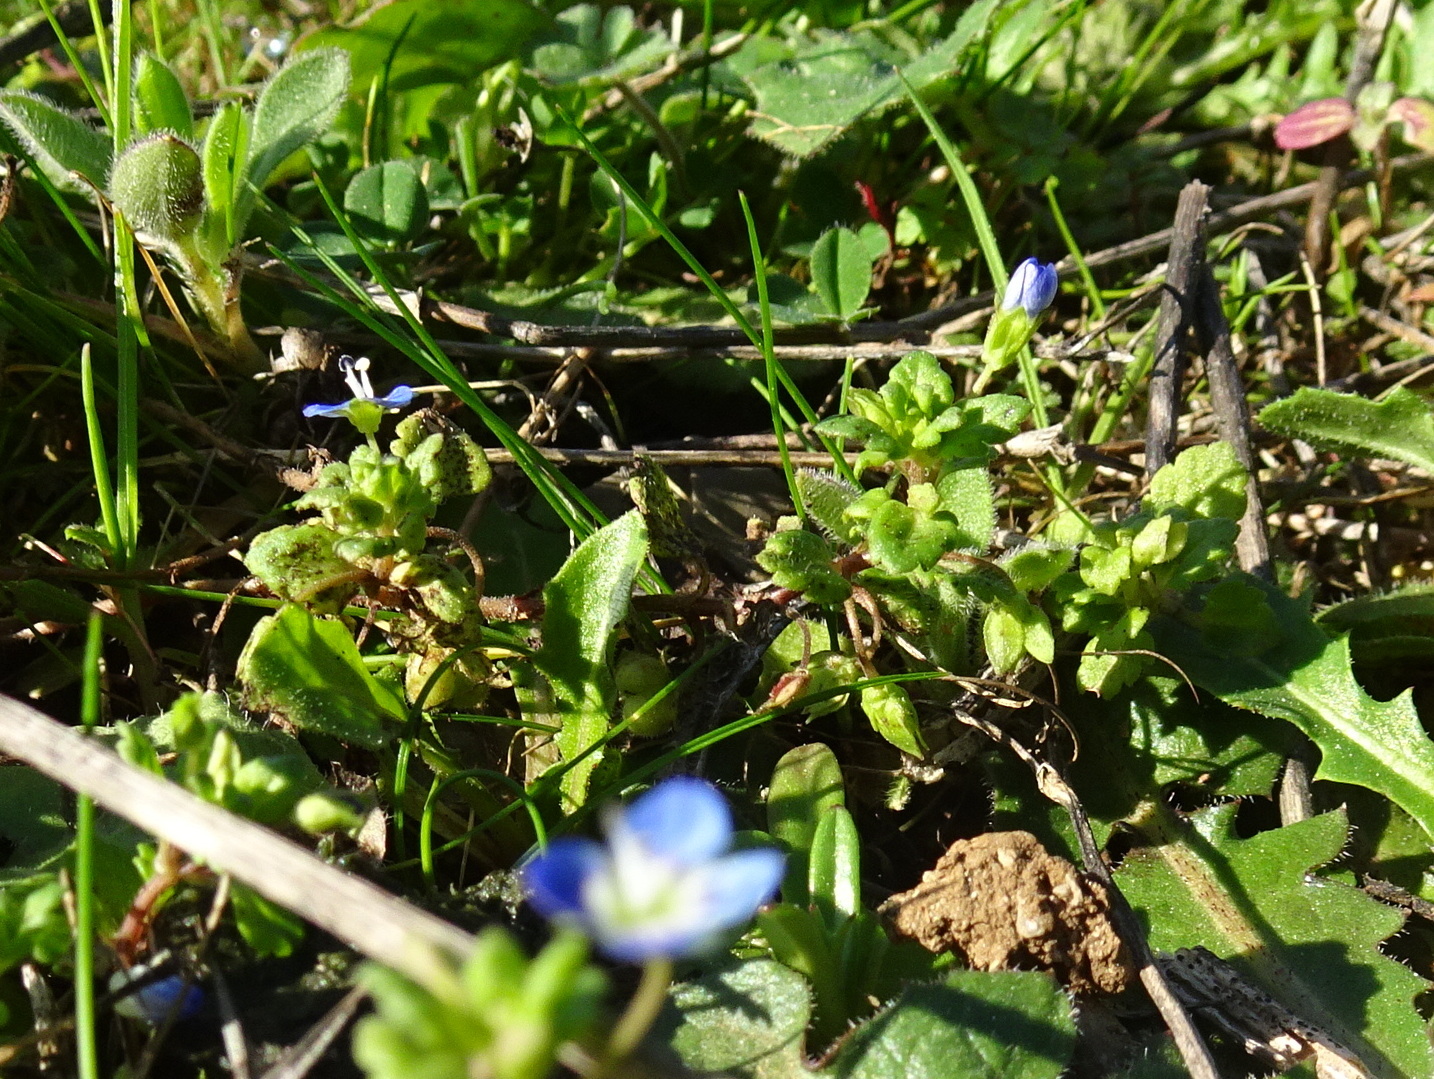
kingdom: Plantae
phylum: Tracheophyta
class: Magnoliopsida
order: Lamiales
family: Plantaginaceae
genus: Veronica
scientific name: Veronica polita
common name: Grey field-speedwell
